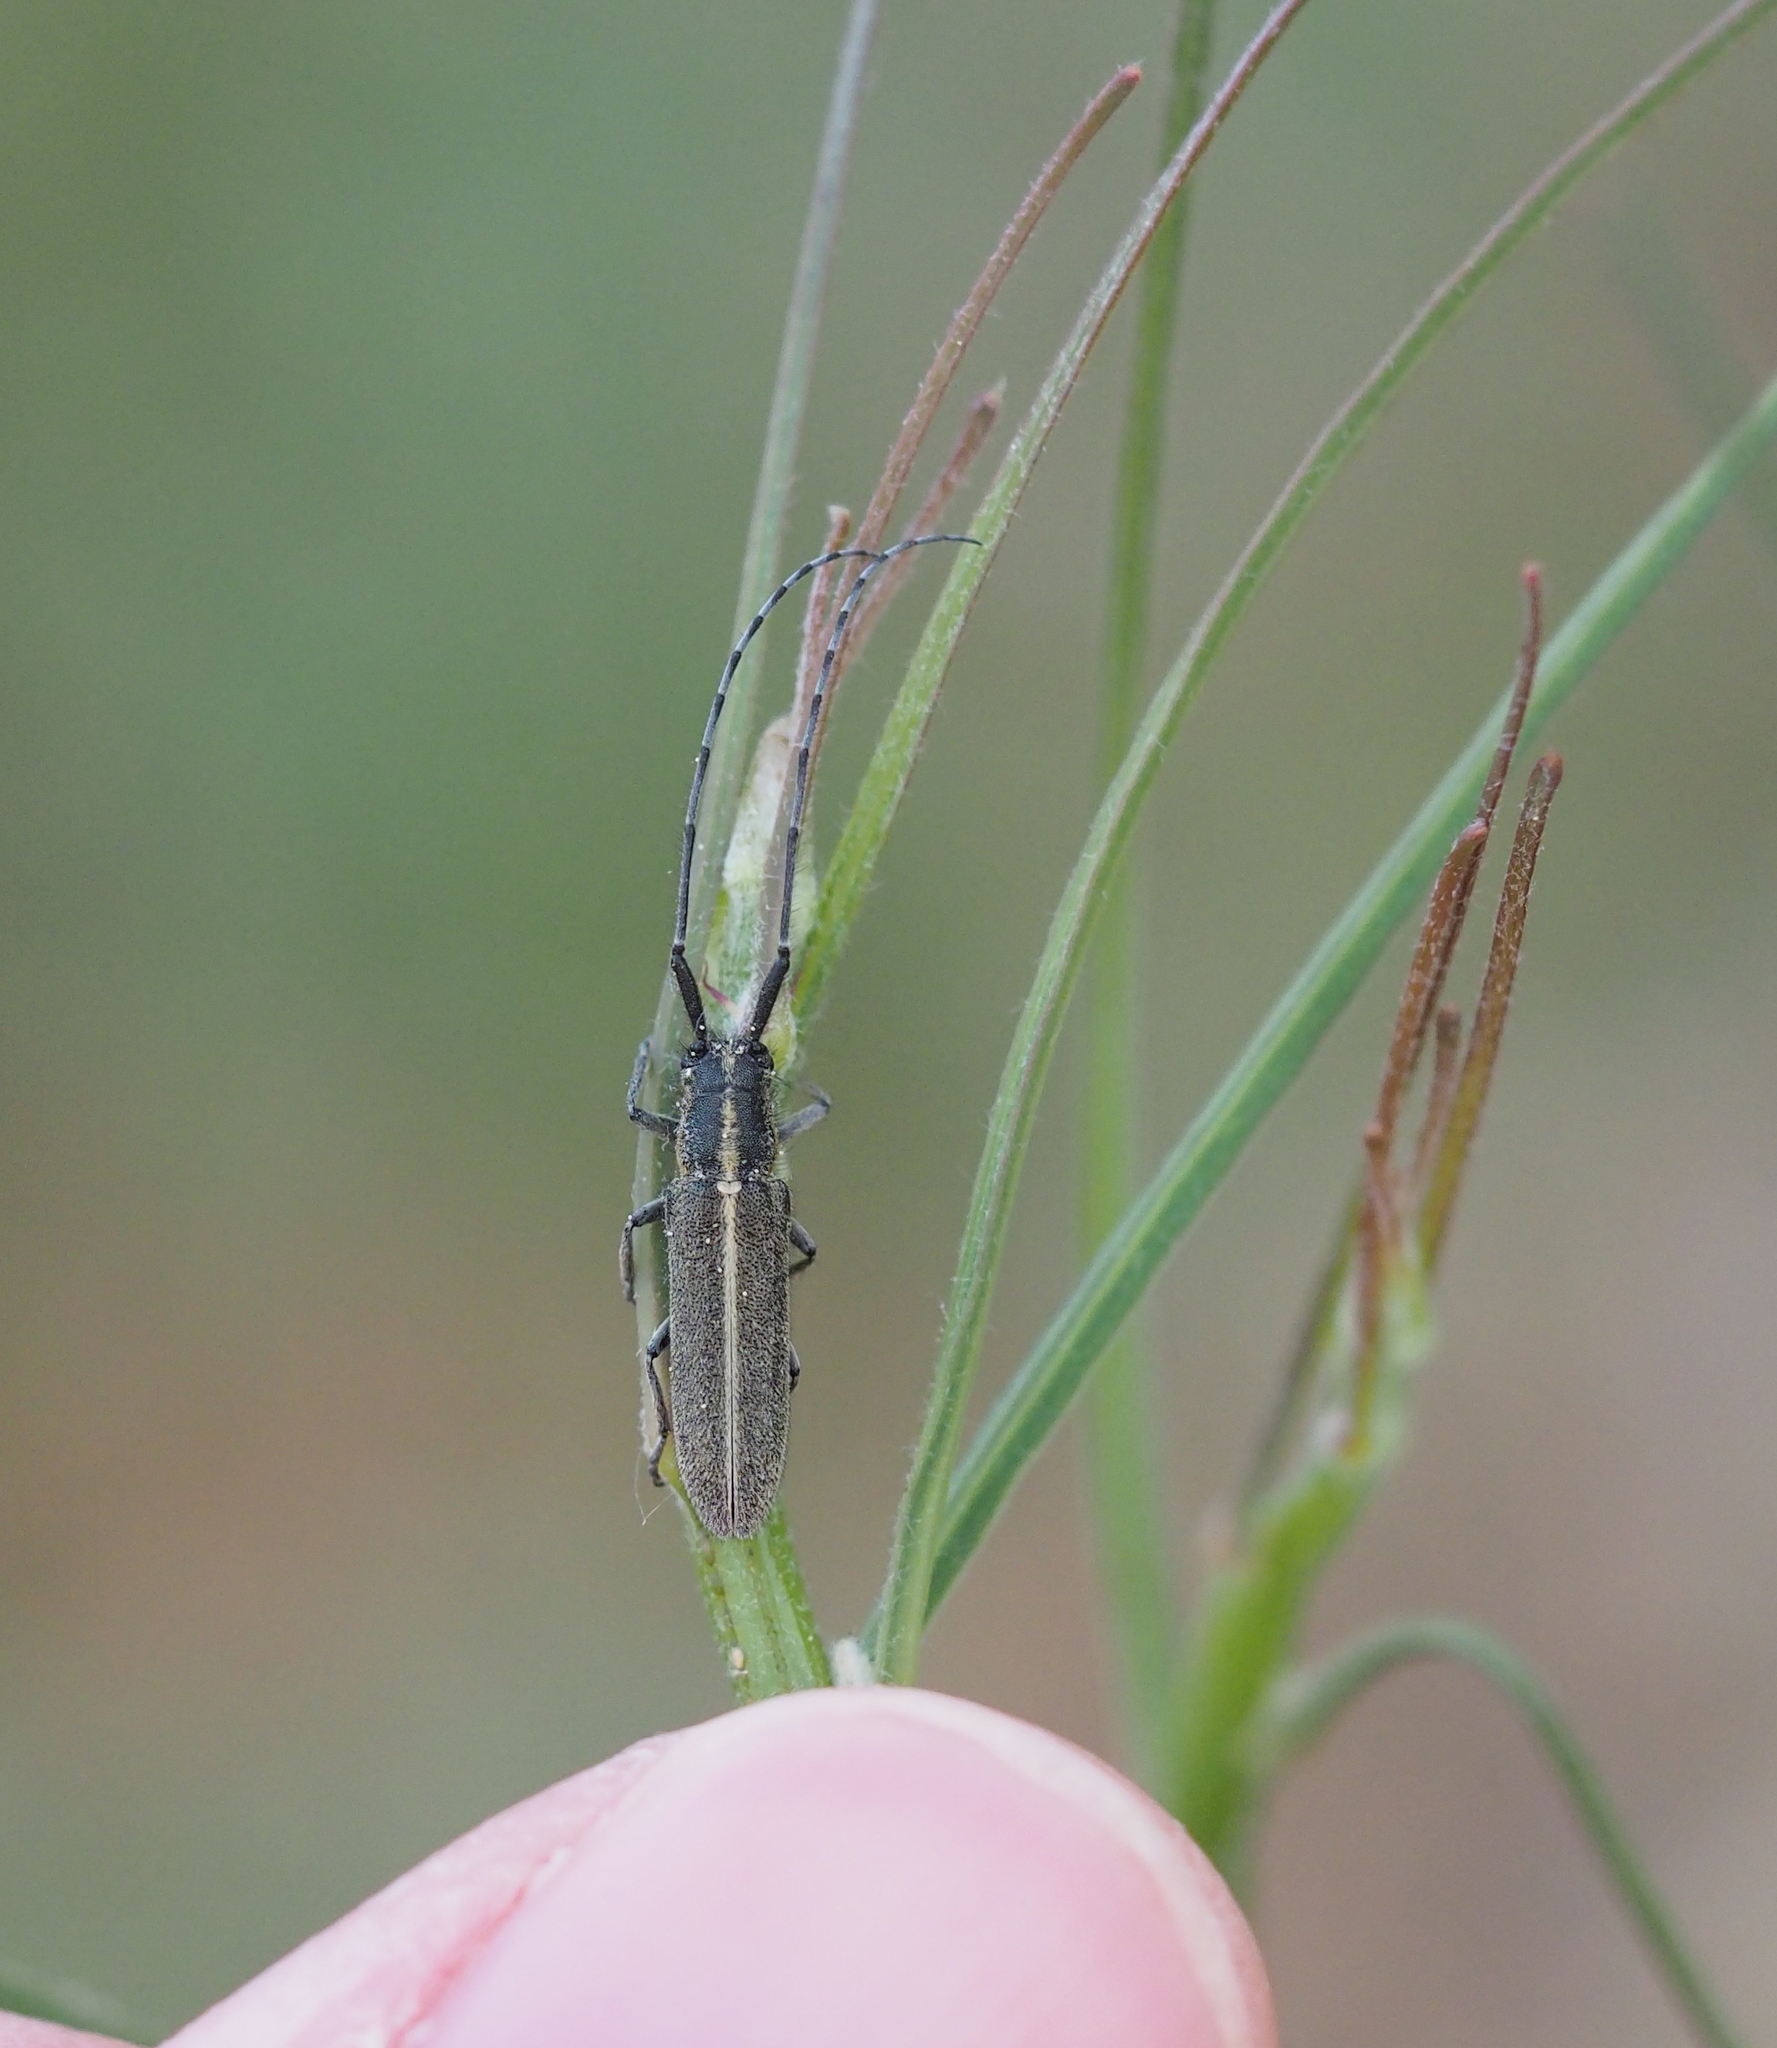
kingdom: Animalia
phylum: Arthropoda
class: Insecta
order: Coleoptera
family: Cerambycidae
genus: Agapanthia
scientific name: Agapanthia cardui
